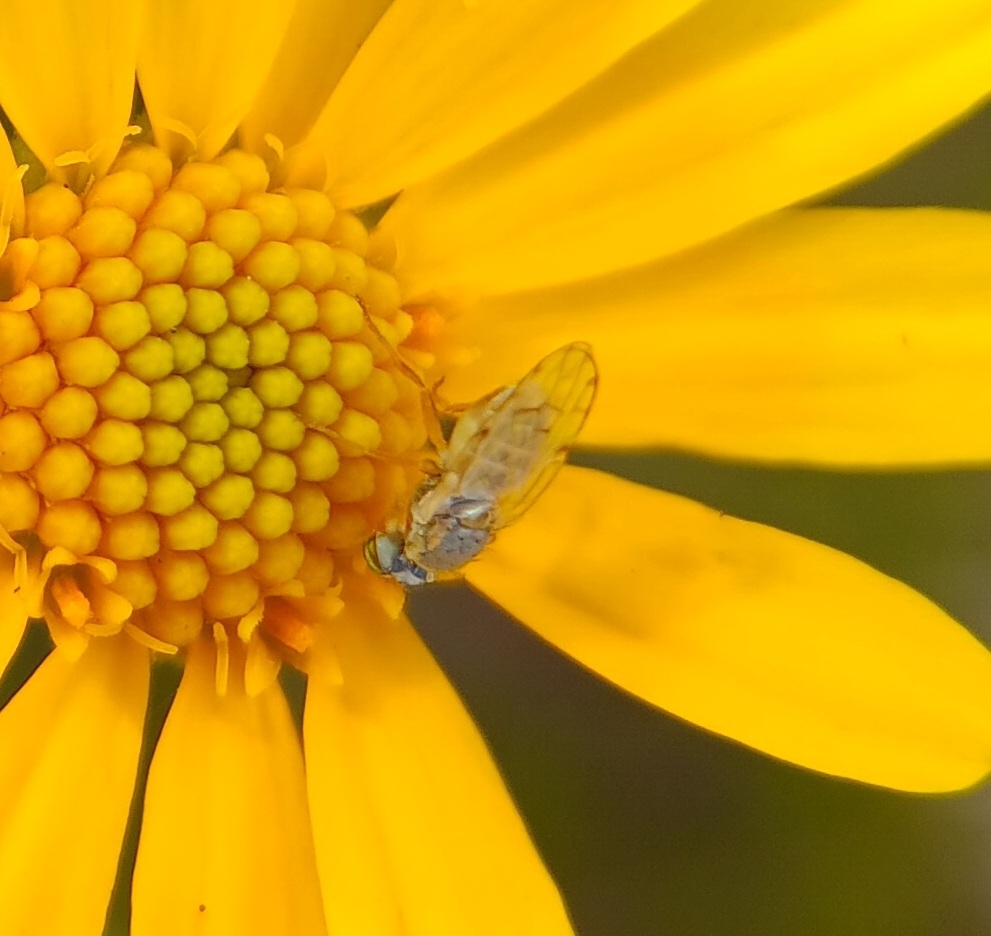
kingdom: Animalia
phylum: Arthropoda
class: Insecta
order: Diptera
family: Tephritidae
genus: Ensina
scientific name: Ensina sonchi
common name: Sonchus fly
